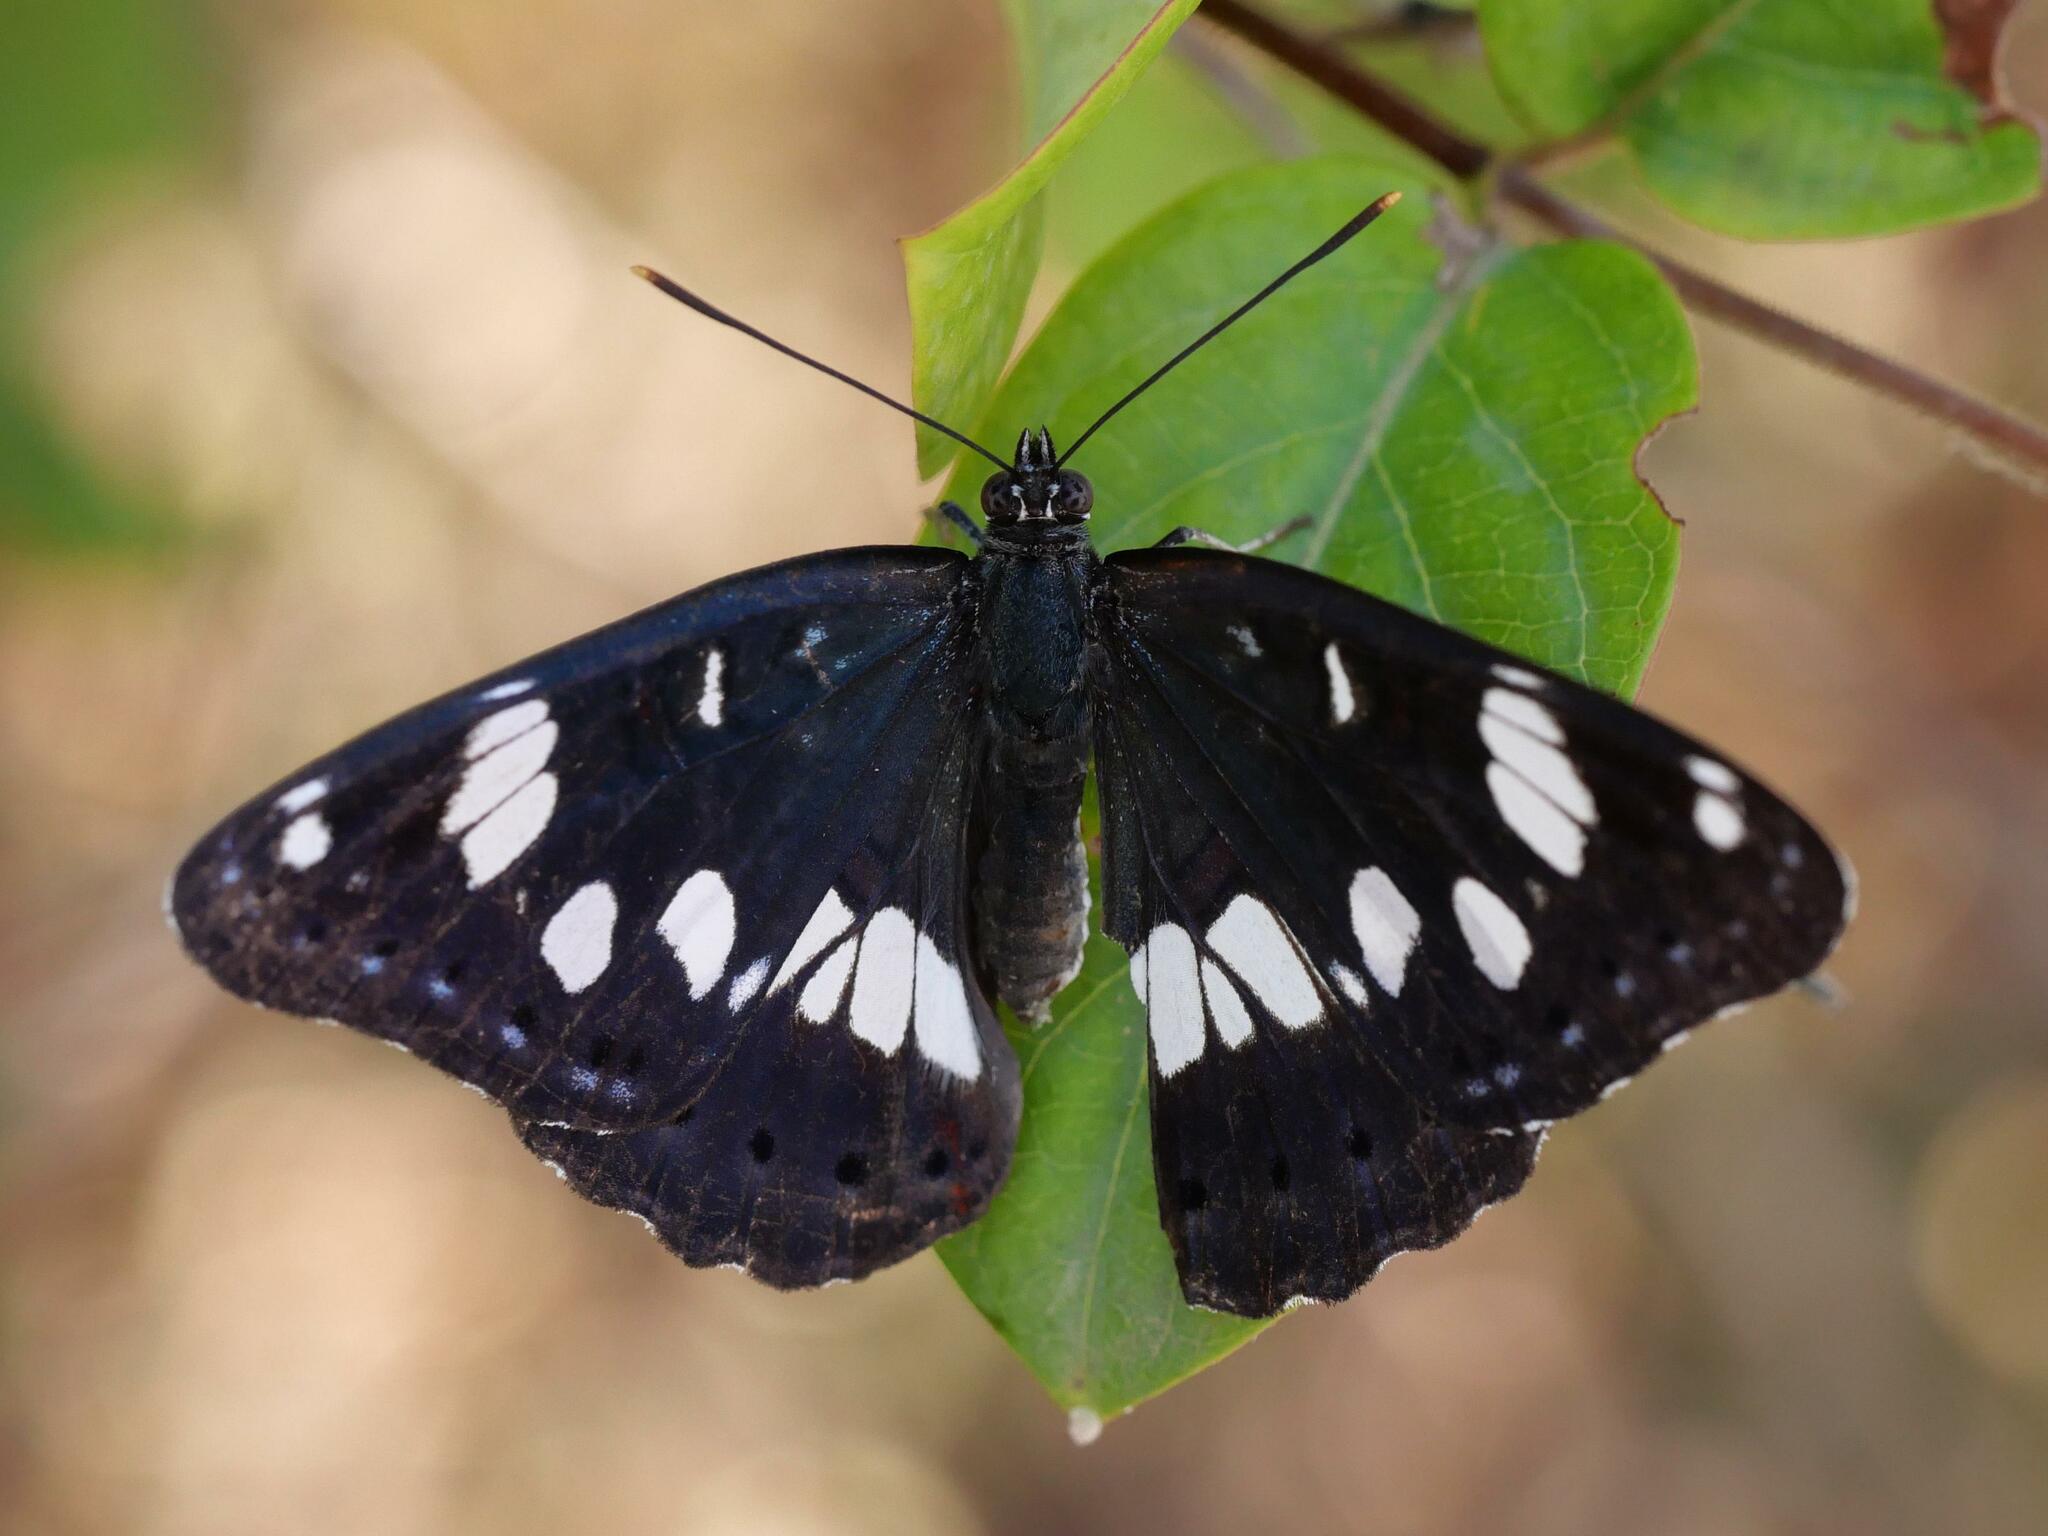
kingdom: Animalia
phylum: Arthropoda
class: Insecta
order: Lepidoptera
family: Nymphalidae
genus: Limenitis
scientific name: Limenitis reducta
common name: Southern white admiral
